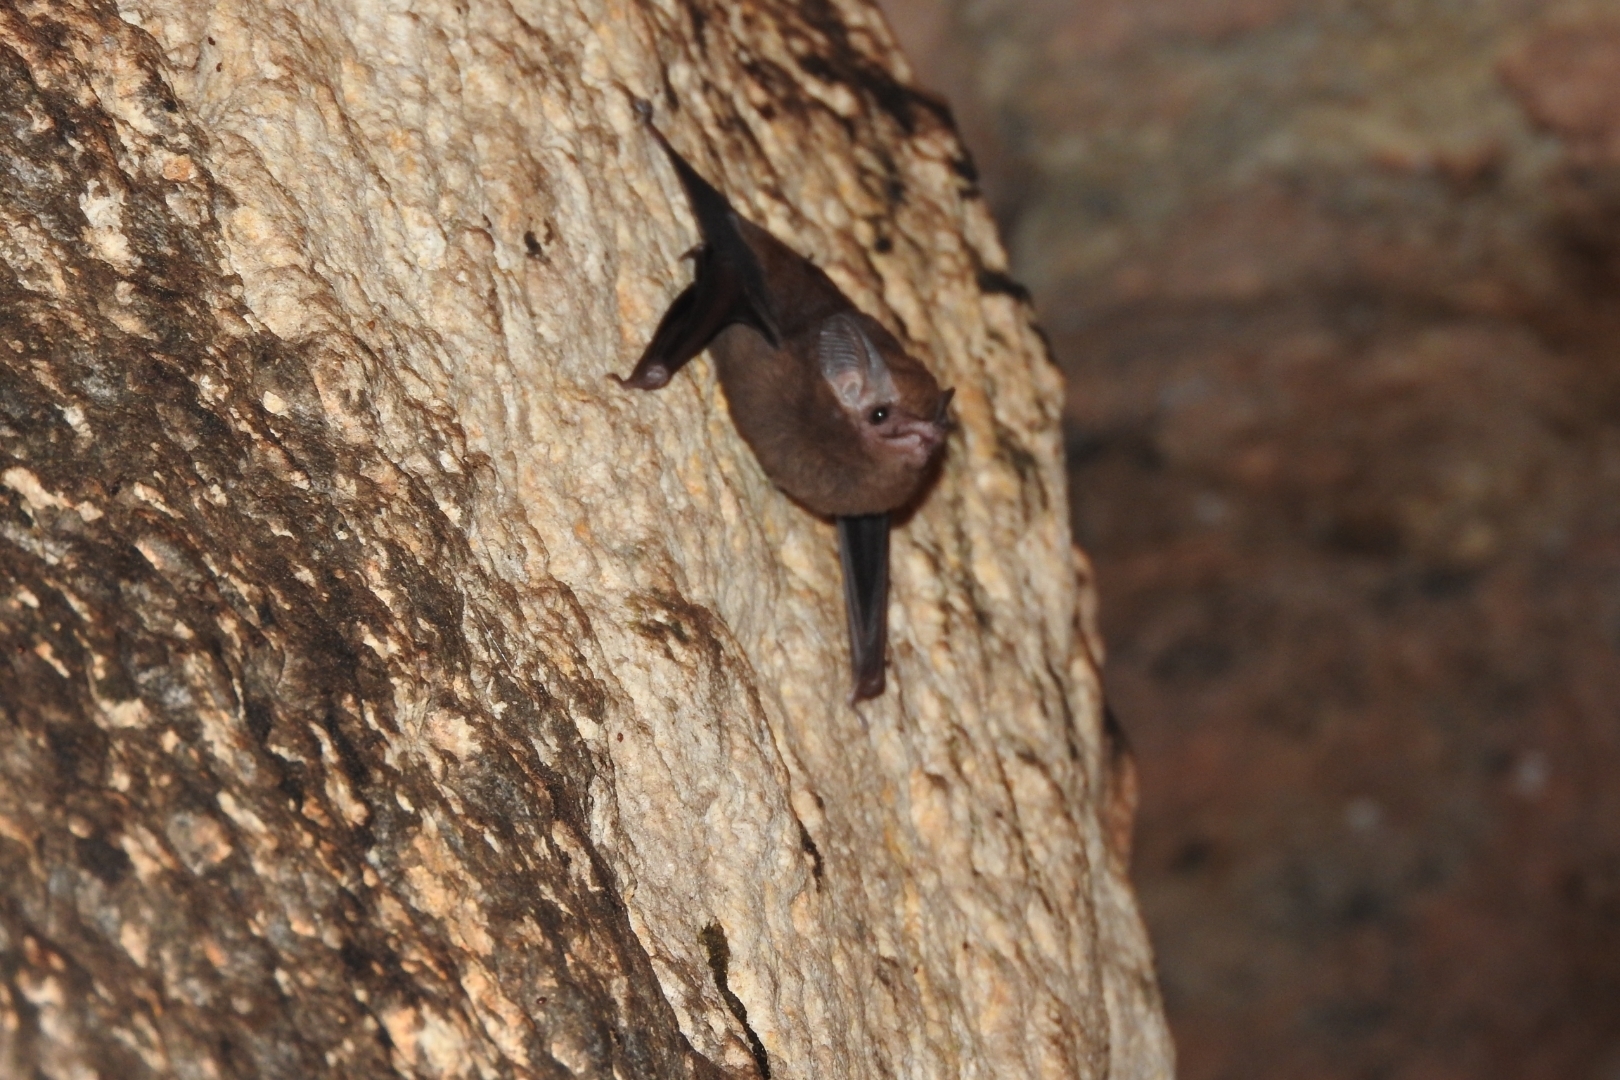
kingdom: Animalia
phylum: Chordata
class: Mammalia
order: Chiroptera
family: Emballonuridae
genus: Peropteryx
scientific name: Peropteryx macrotis
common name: Lesser dog-like bat
